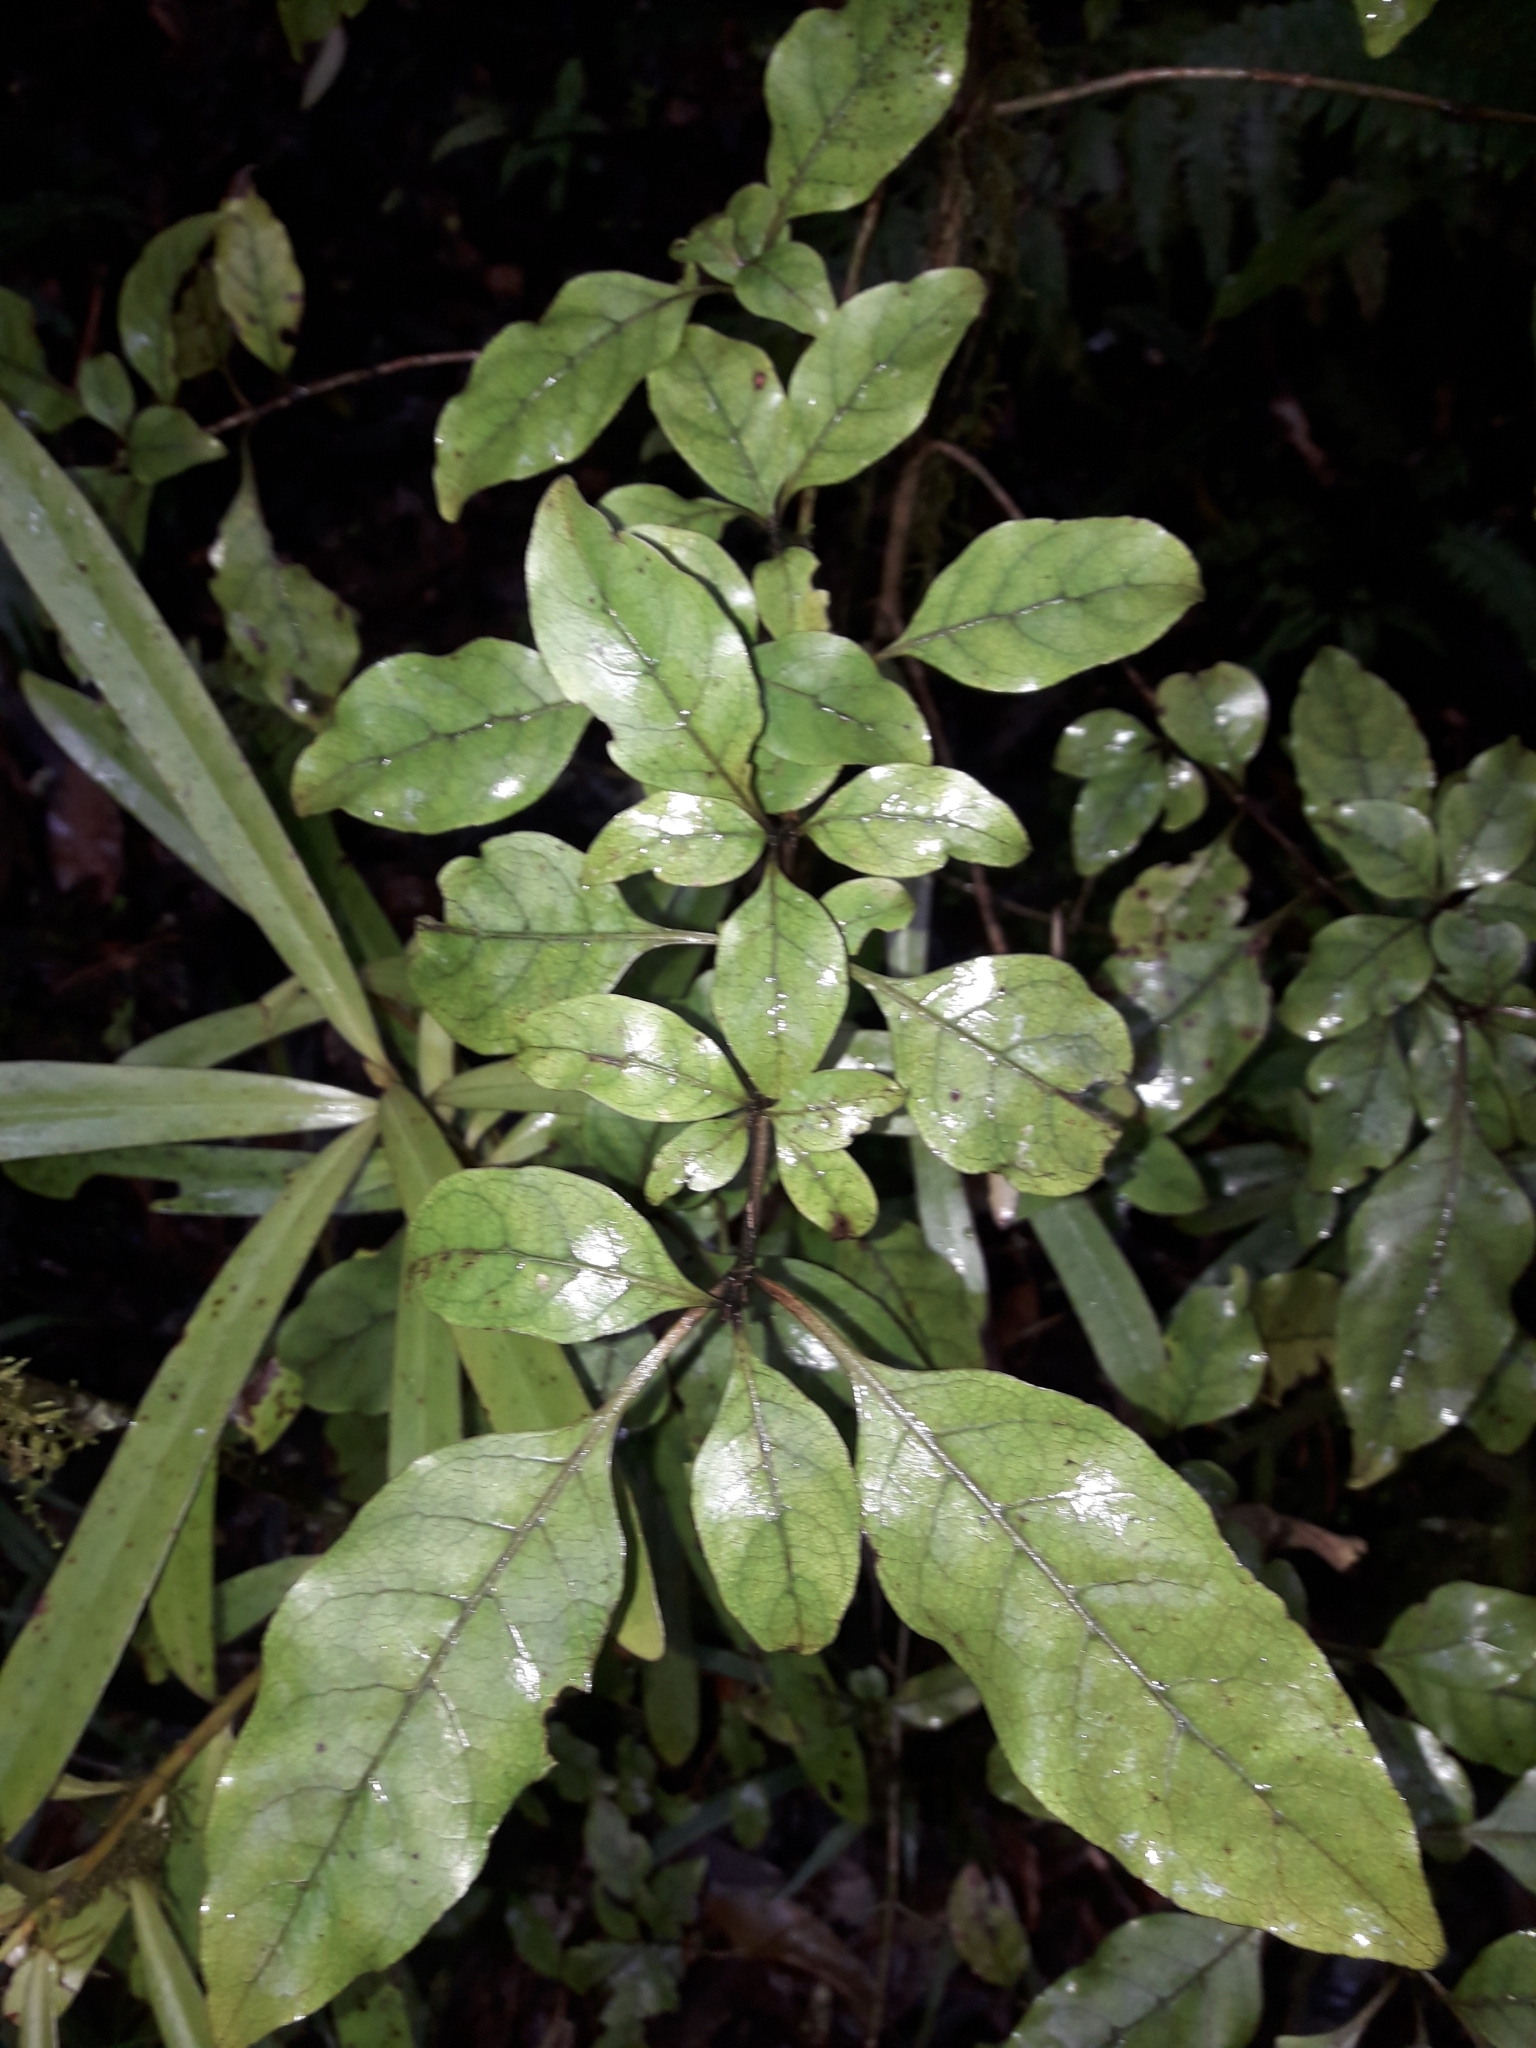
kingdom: Plantae
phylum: Tracheophyta
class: Magnoliopsida
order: Gentianales
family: Rubiaceae
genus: Coprosma
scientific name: Coprosma tenuifolia
